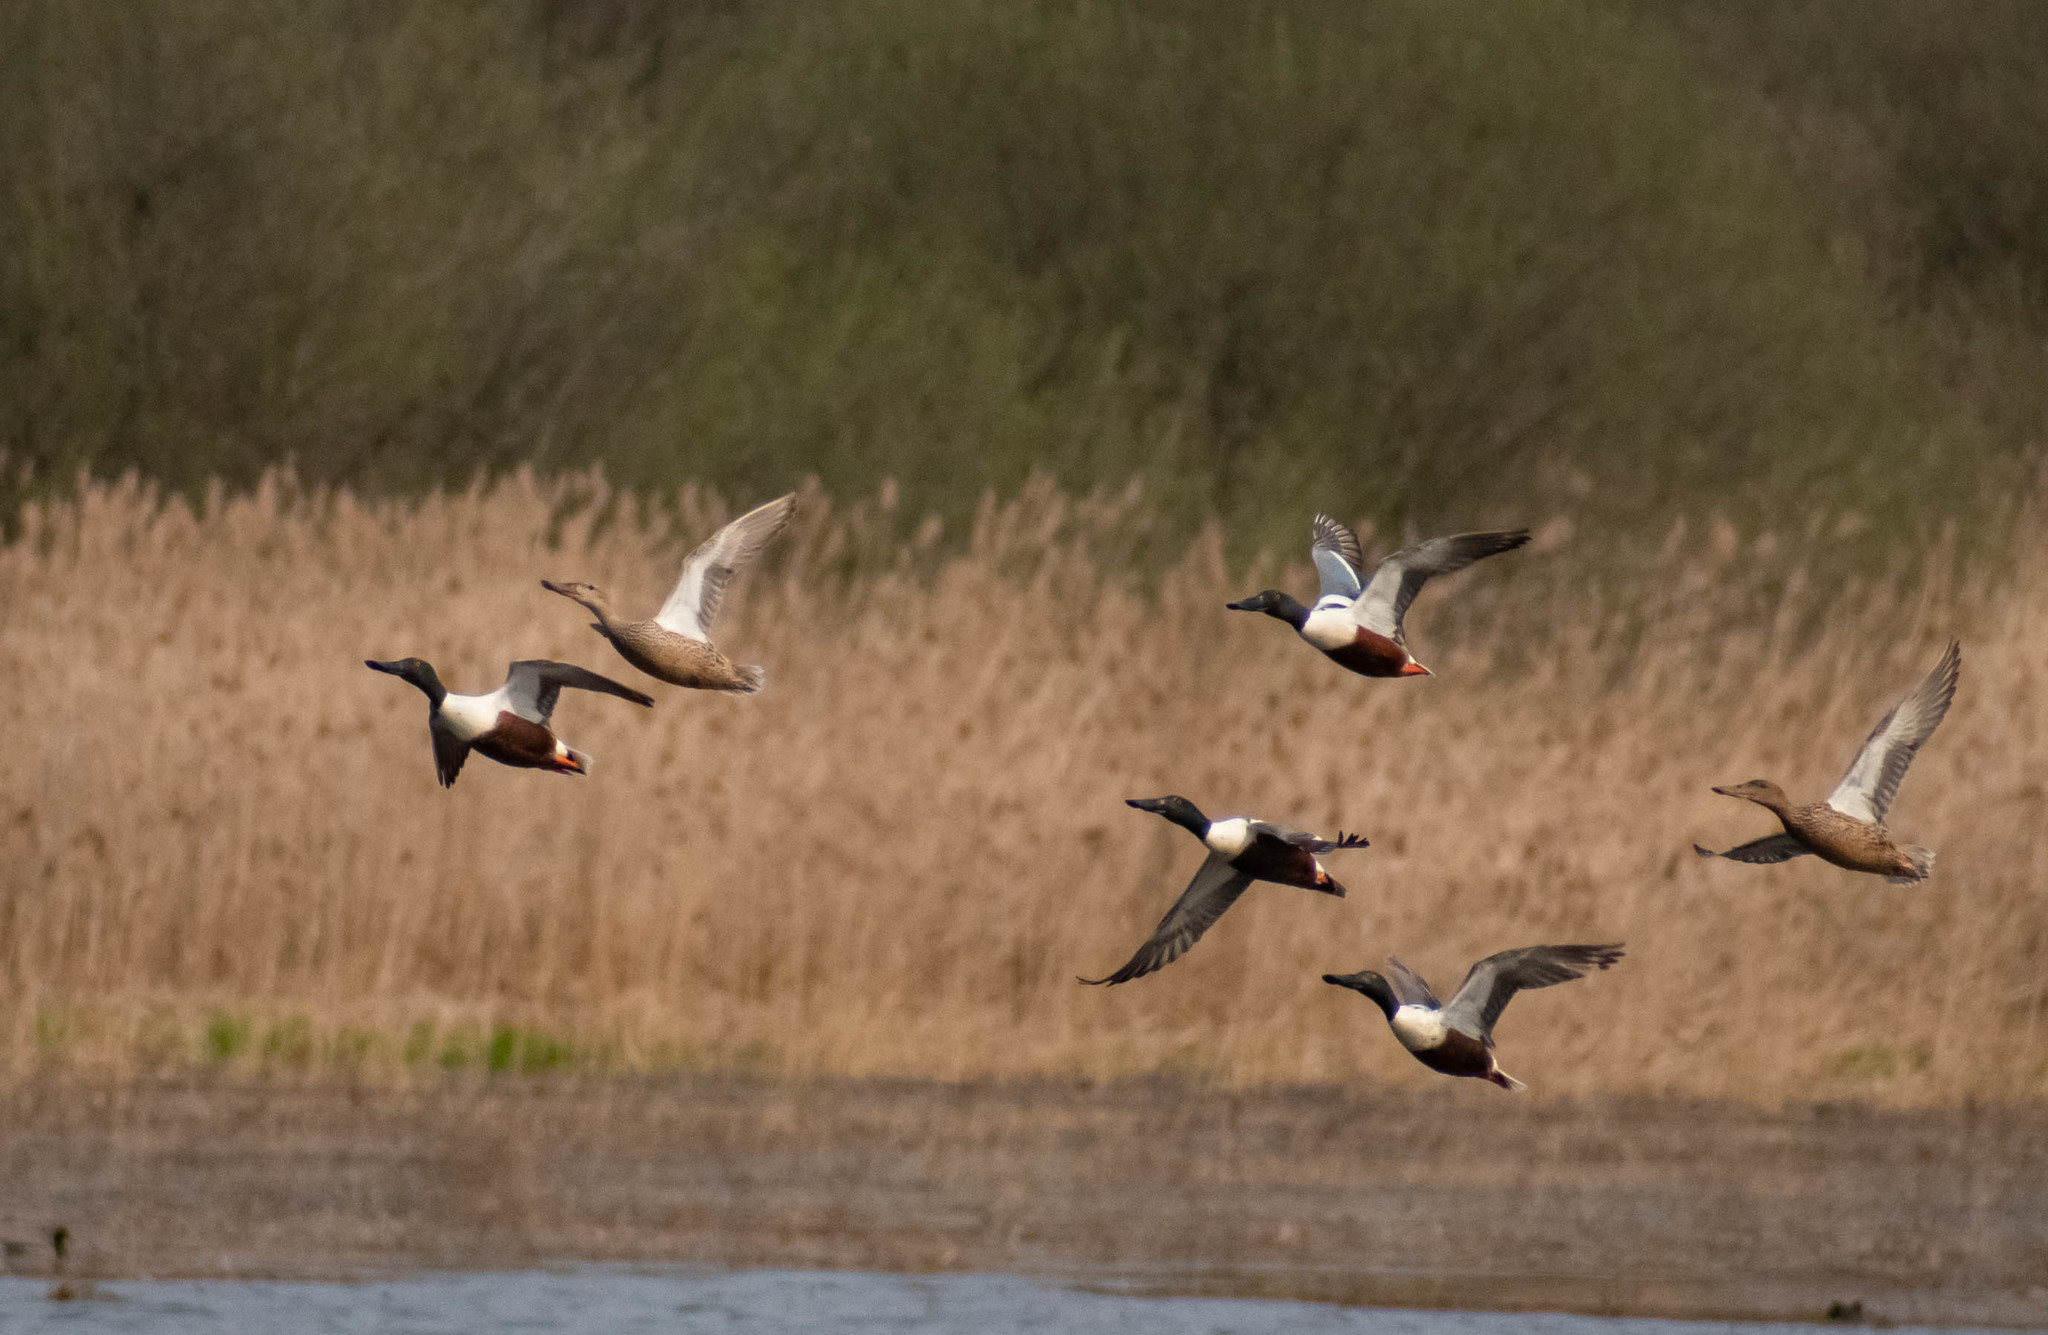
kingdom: Animalia
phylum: Chordata
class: Aves
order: Anseriformes
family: Anatidae
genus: Spatula
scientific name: Spatula clypeata
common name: Northern shoveler
